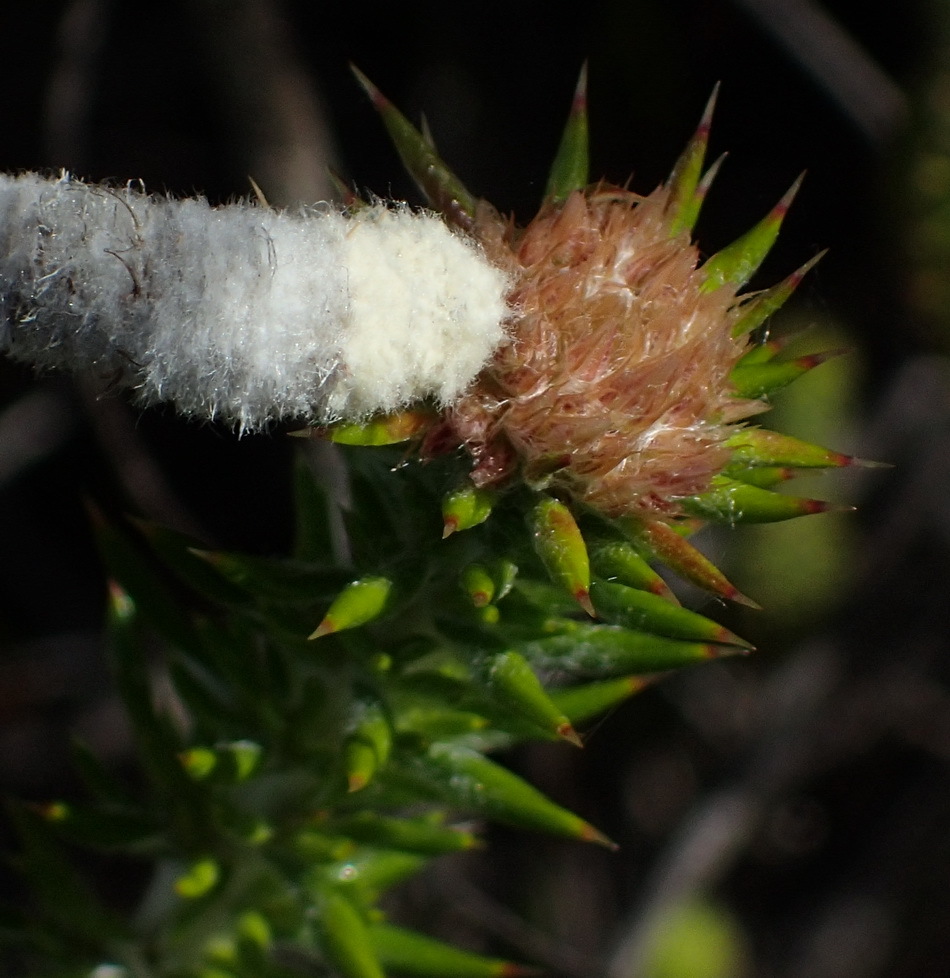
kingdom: Plantae
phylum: Tracheophyta
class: Magnoliopsida
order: Asterales
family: Asteraceae
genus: Metalasia
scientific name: Metalasia trivialis
